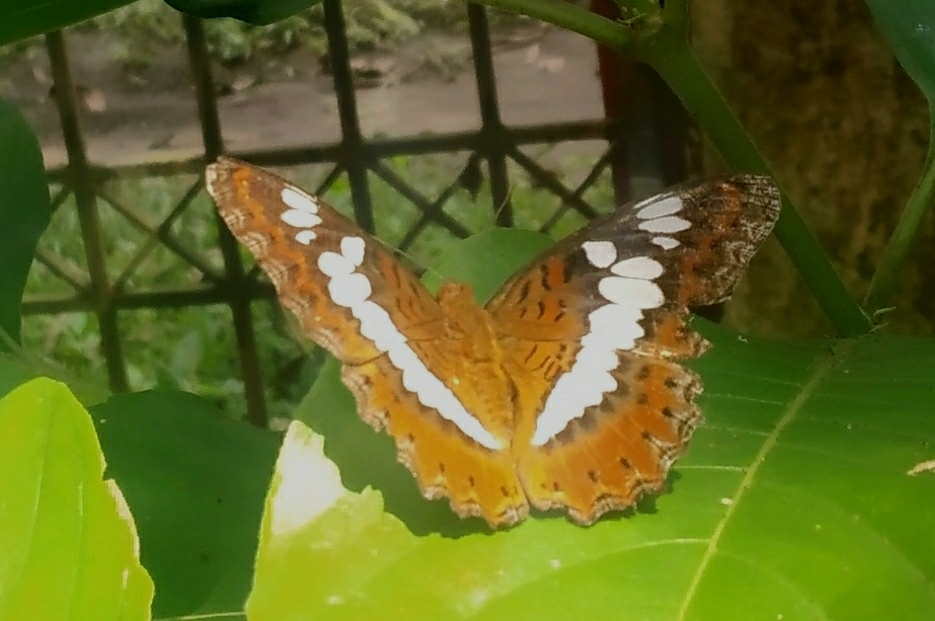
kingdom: Animalia
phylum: Arthropoda
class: Insecta
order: Lepidoptera
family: Nymphalidae
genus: Limenitis
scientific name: Limenitis Moduza procris
